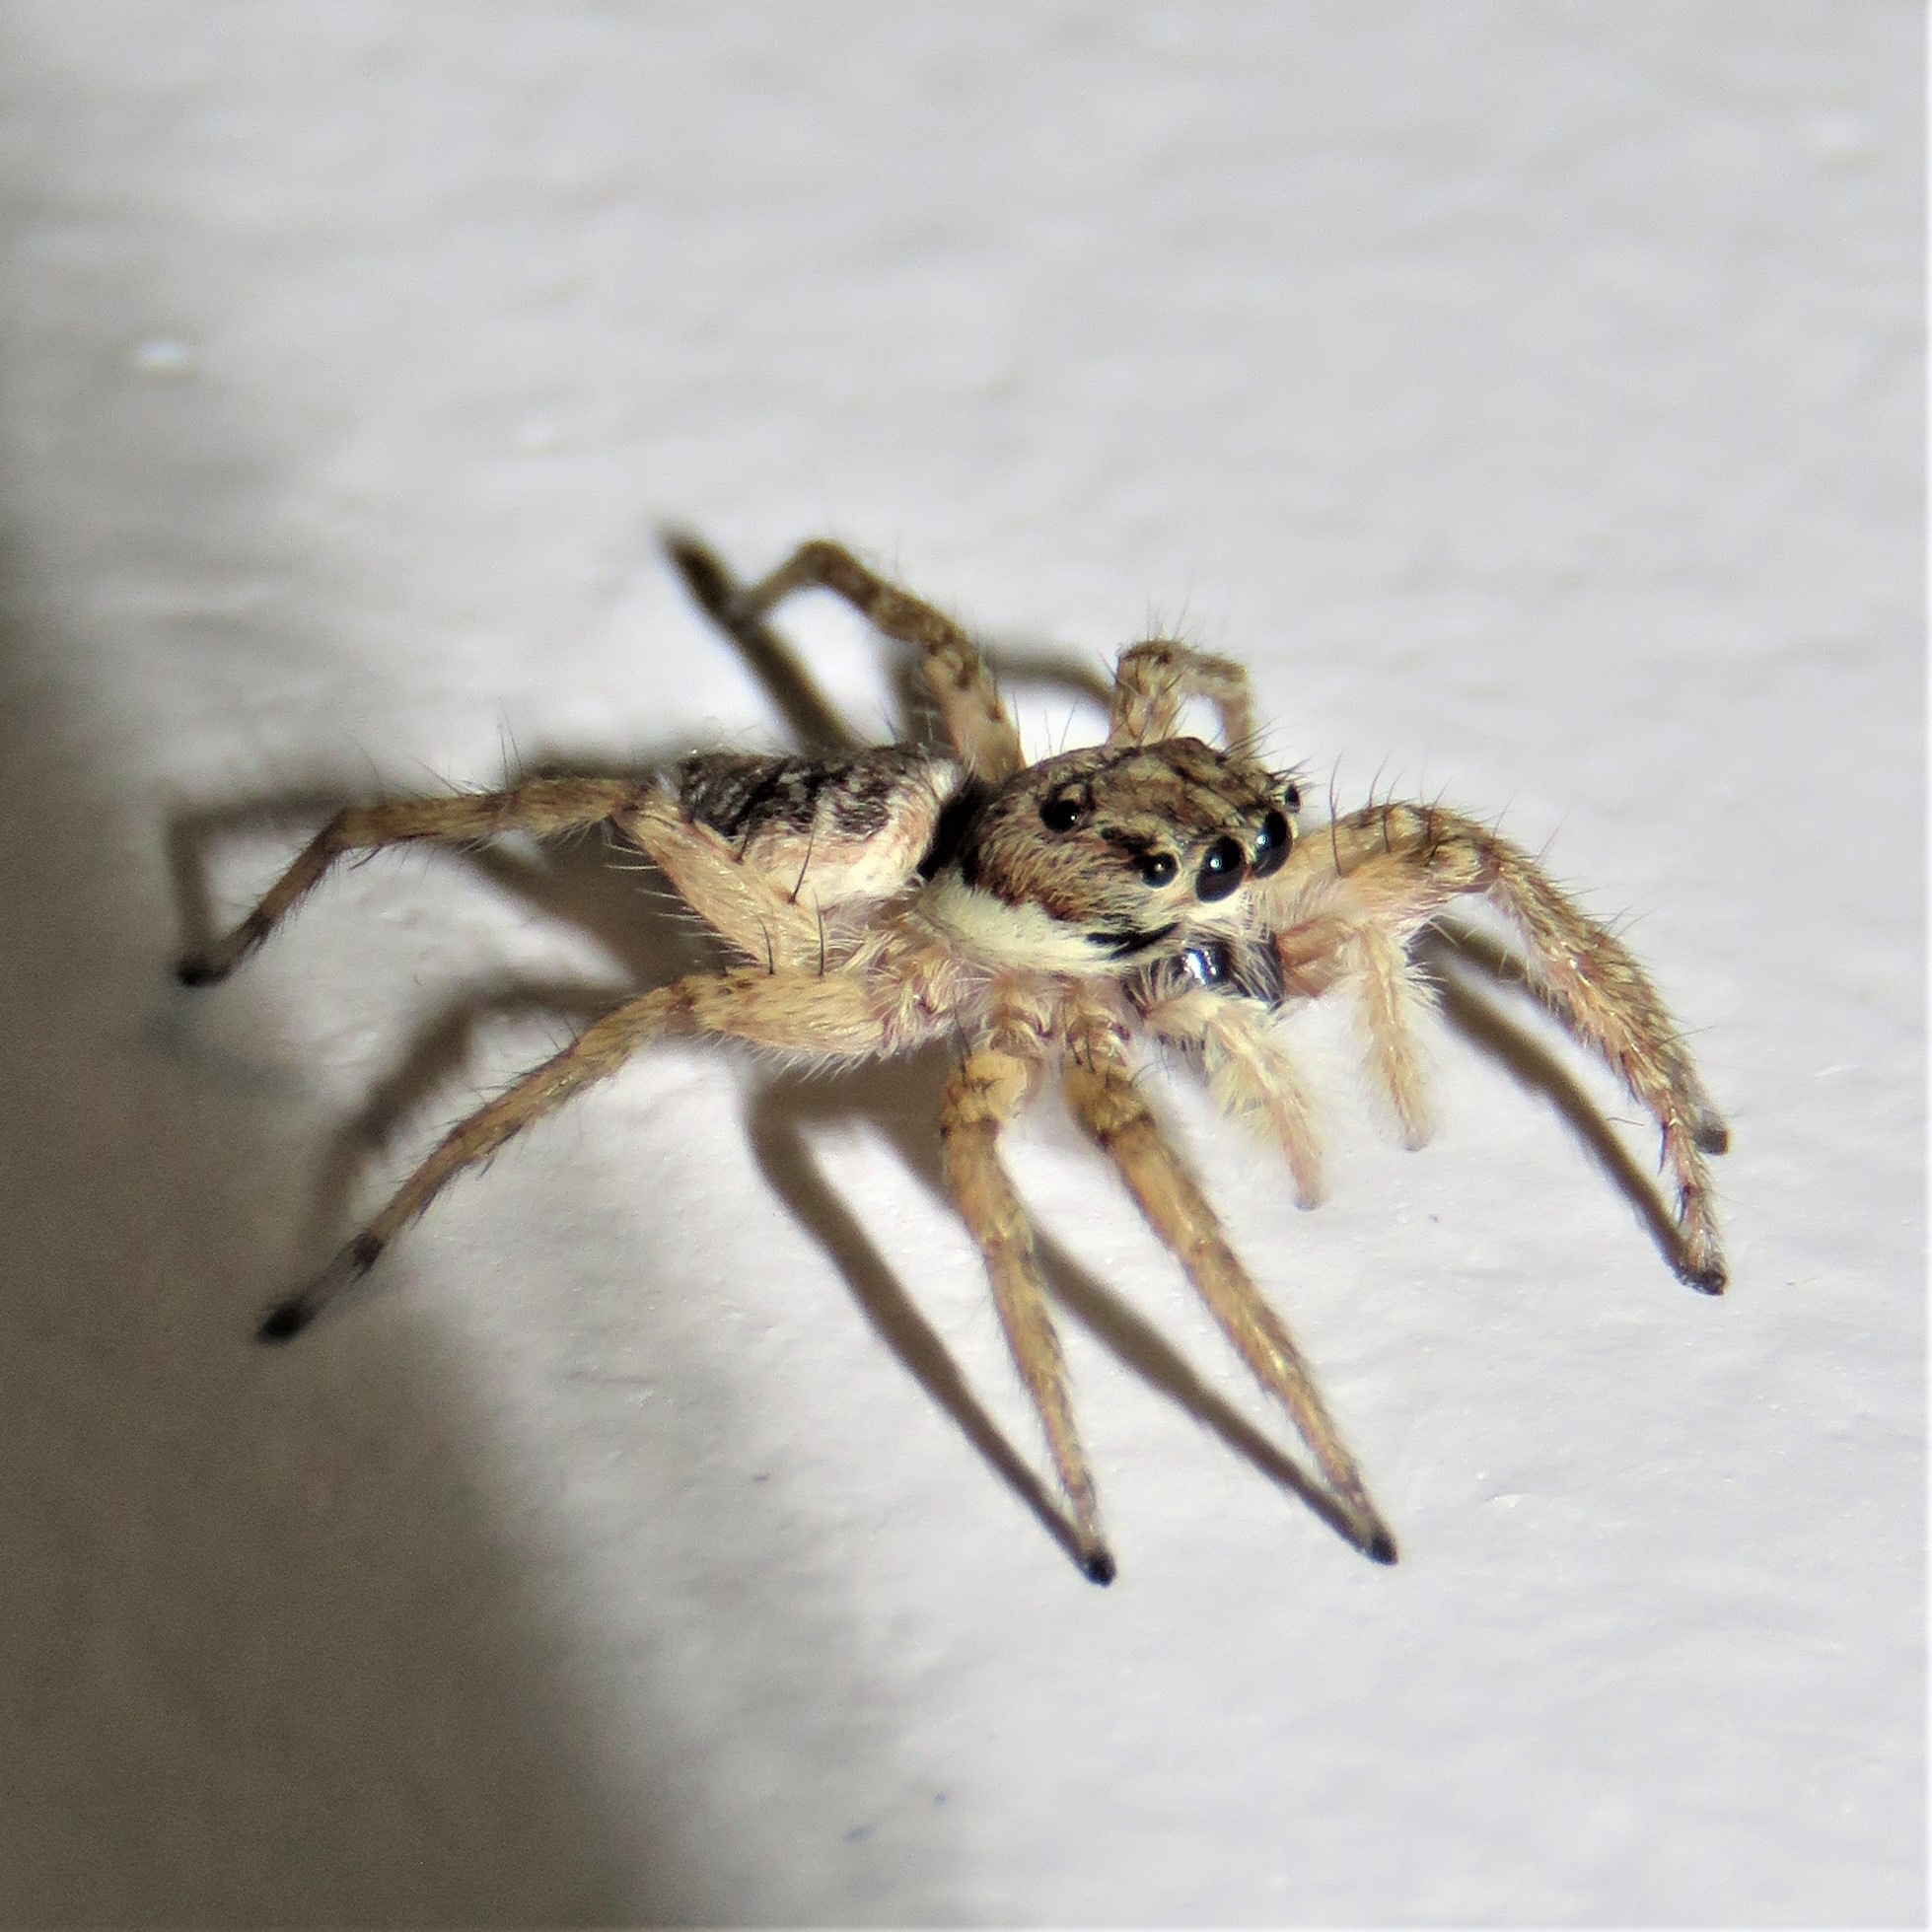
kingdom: Animalia
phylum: Arthropoda
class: Arachnida
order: Araneae
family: Salticidae
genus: Menemerus
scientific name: Menemerus semilimbatus
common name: Jumping spider
